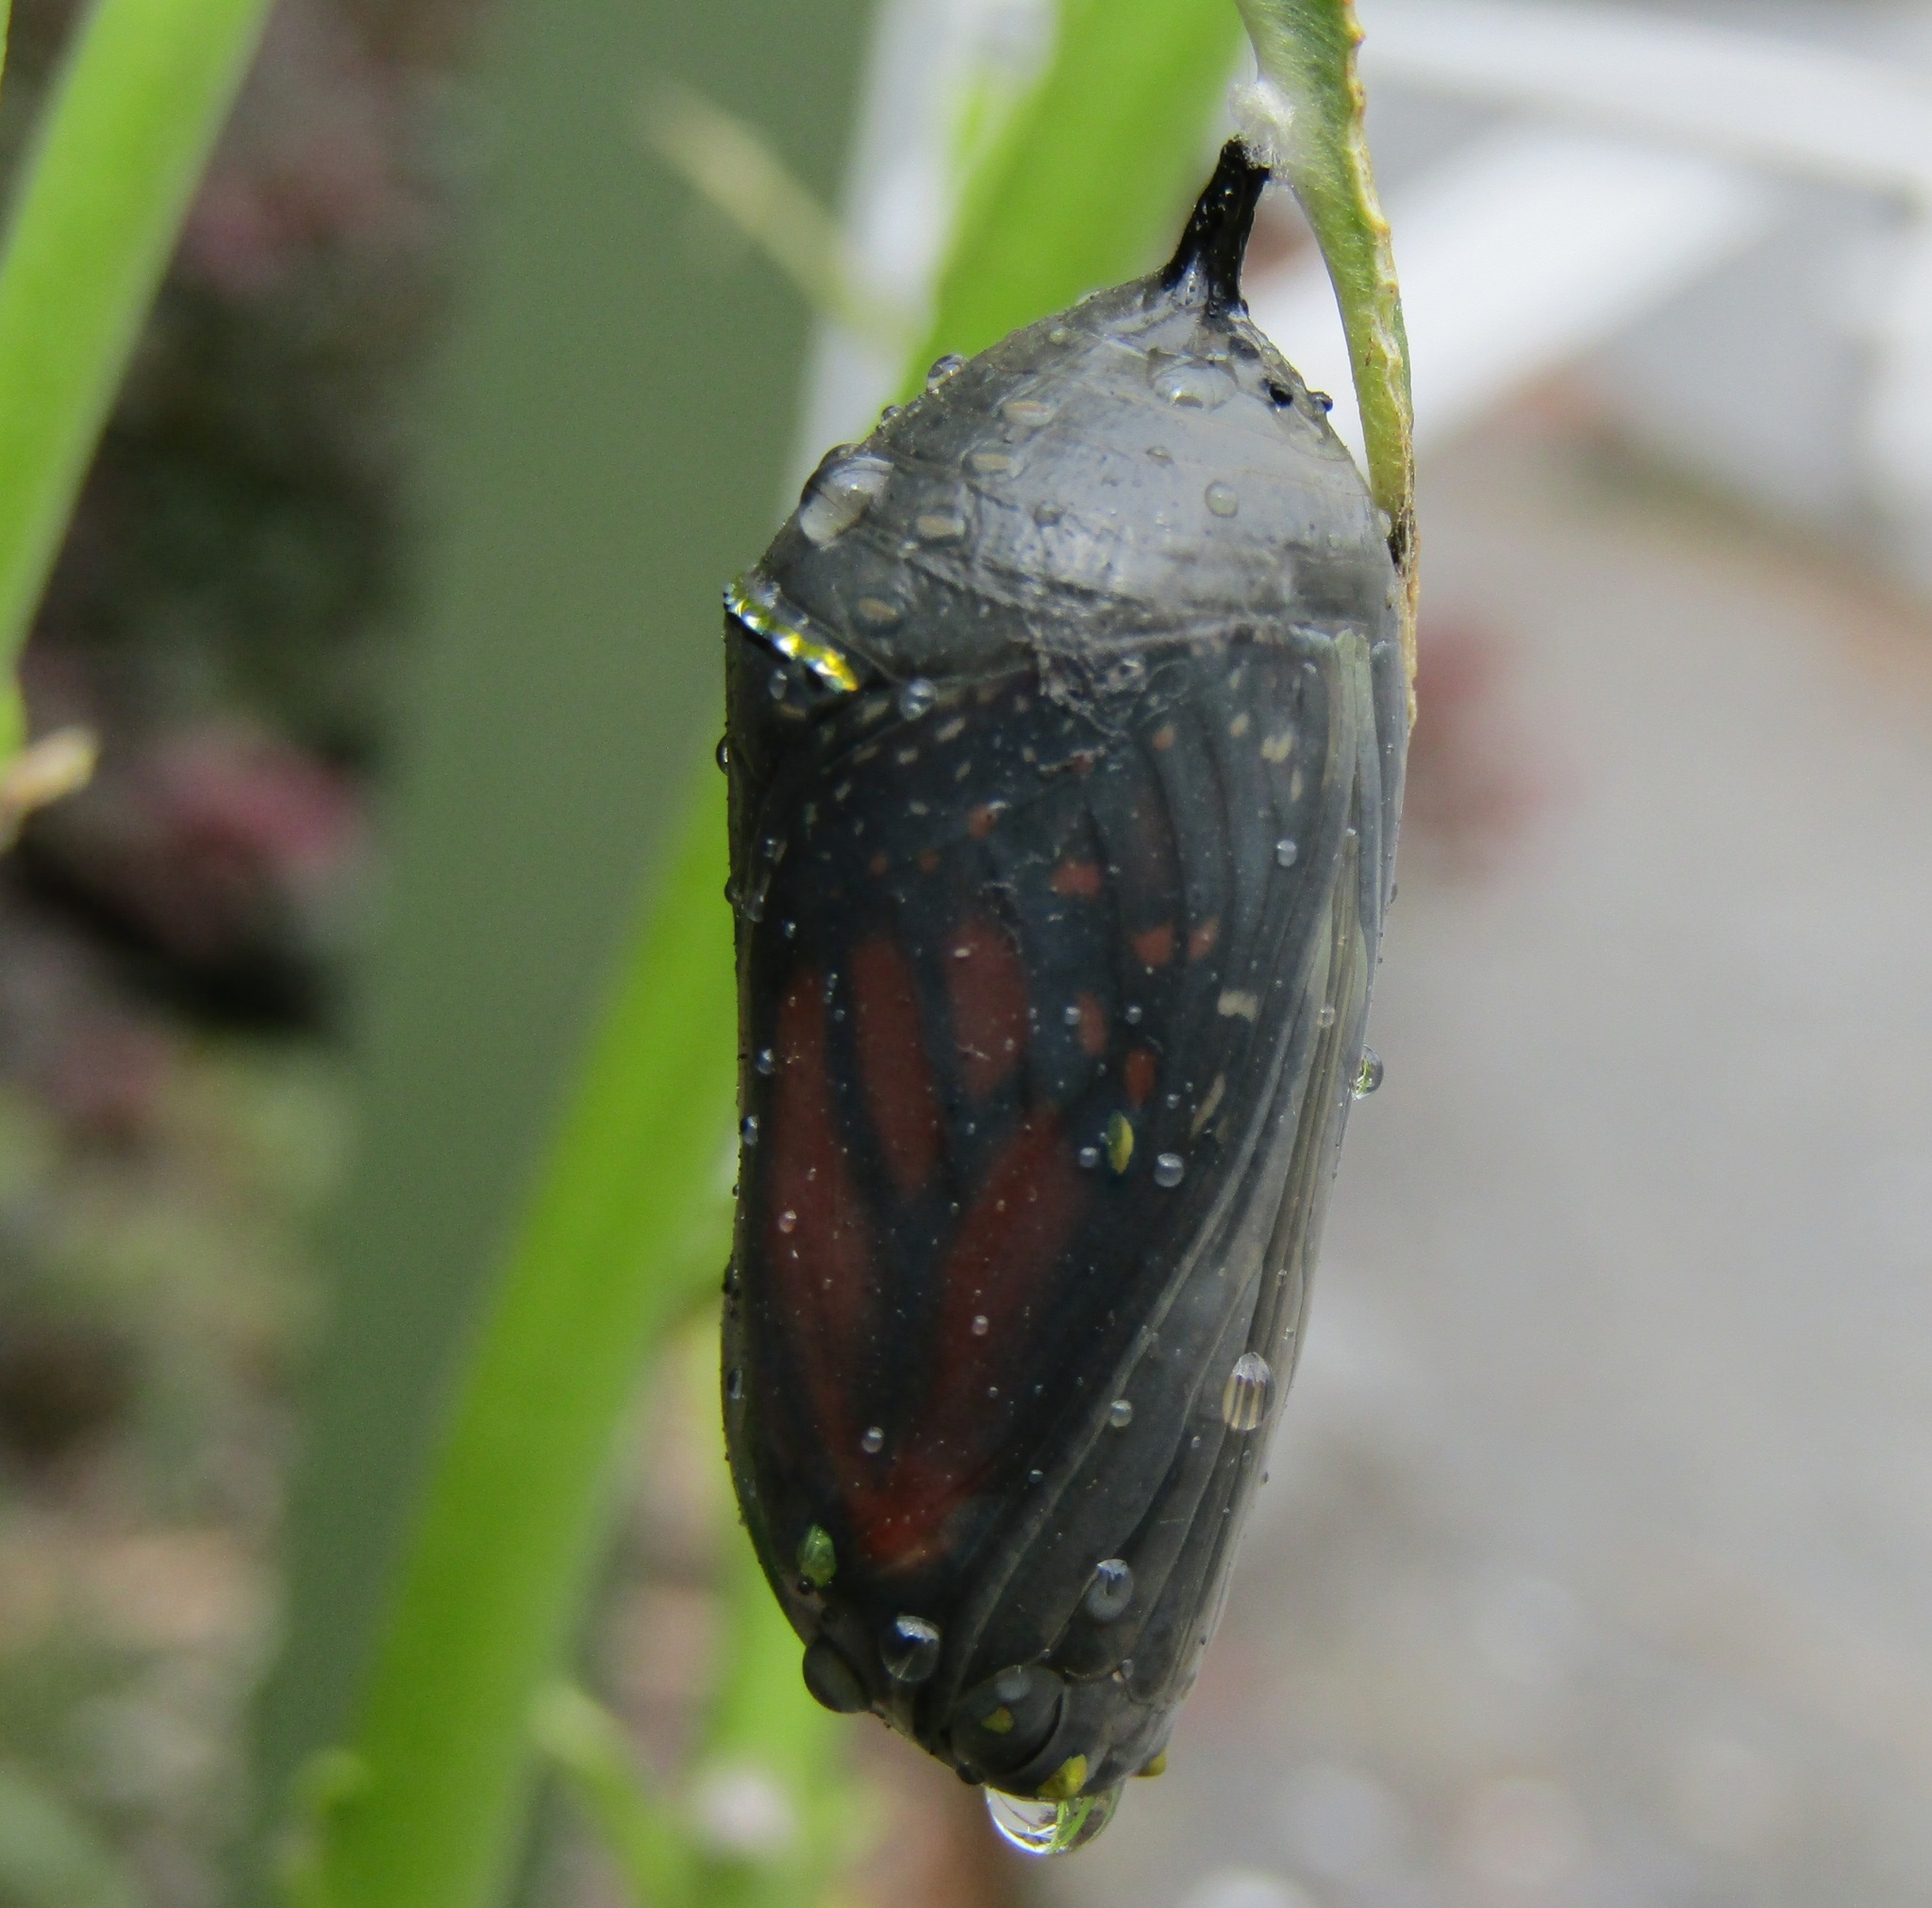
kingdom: Animalia
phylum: Arthropoda
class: Insecta
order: Lepidoptera
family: Nymphalidae
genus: Danaus
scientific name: Danaus plexippus
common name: Monarch
